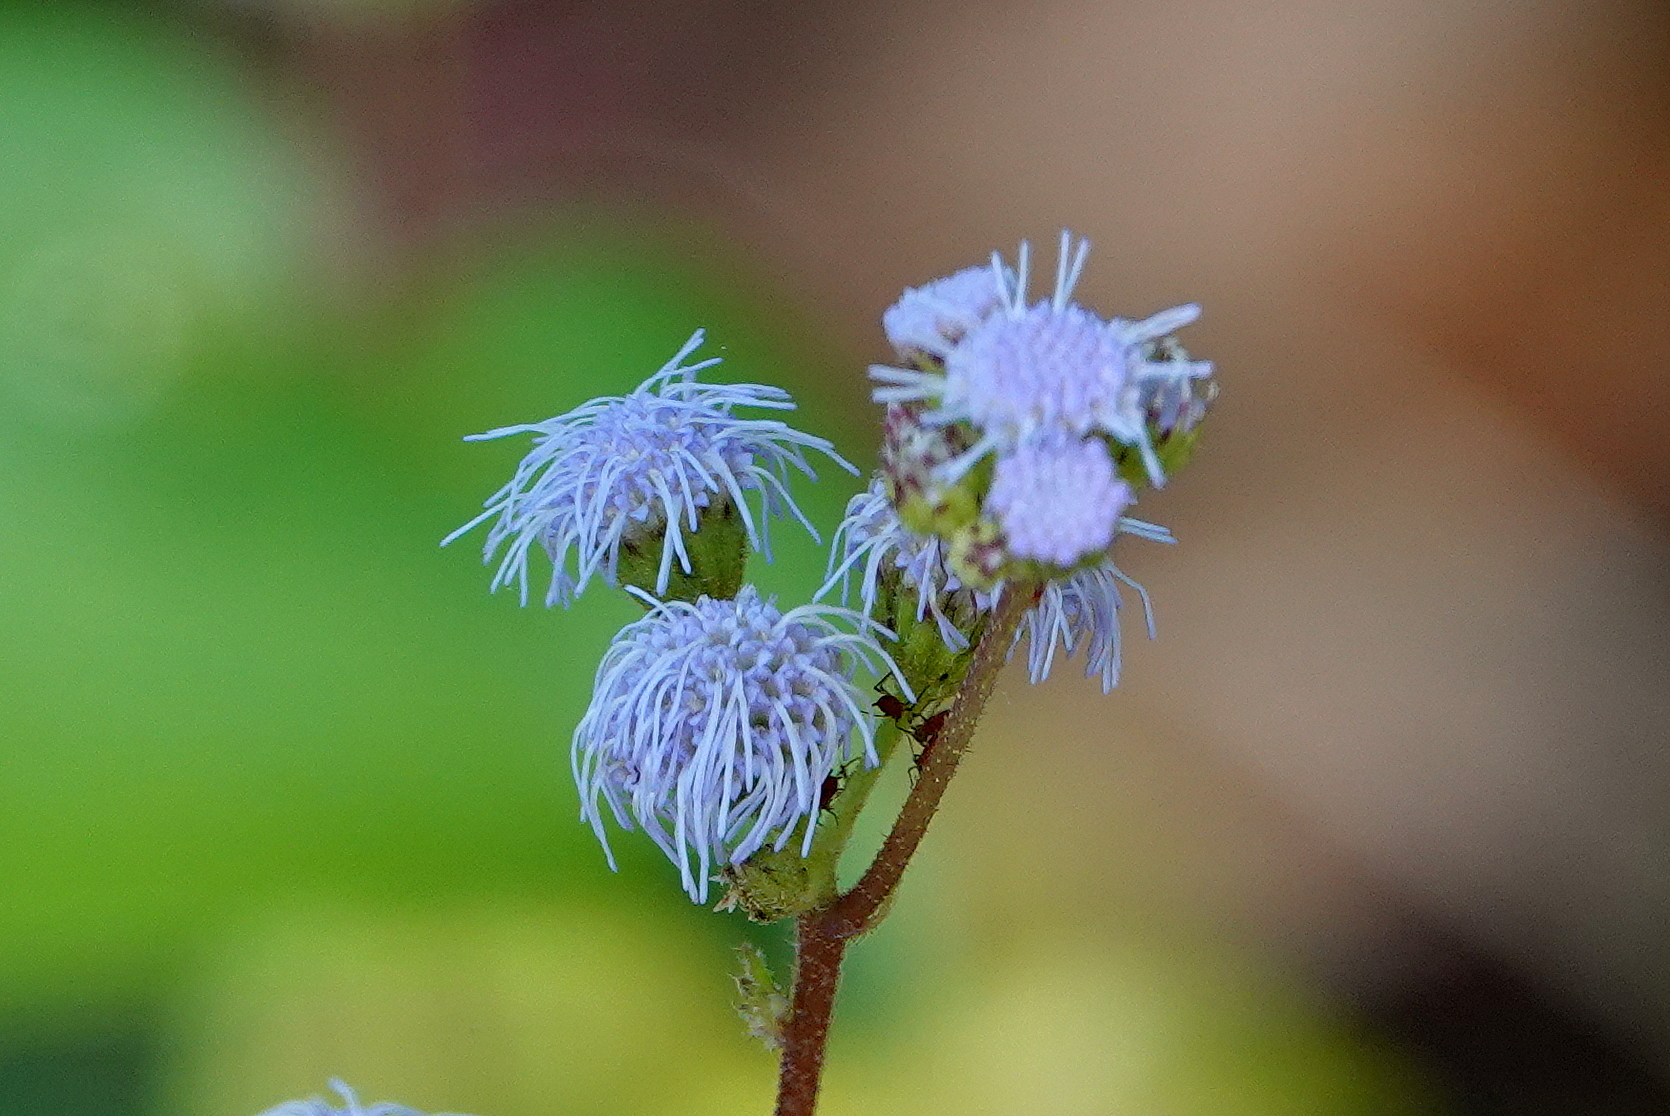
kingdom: Plantae
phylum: Tracheophyta
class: Magnoliopsida
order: Asterales
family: Asteraceae
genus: Conoclinium
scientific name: Conoclinium coelestinum
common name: Blue mistflower
